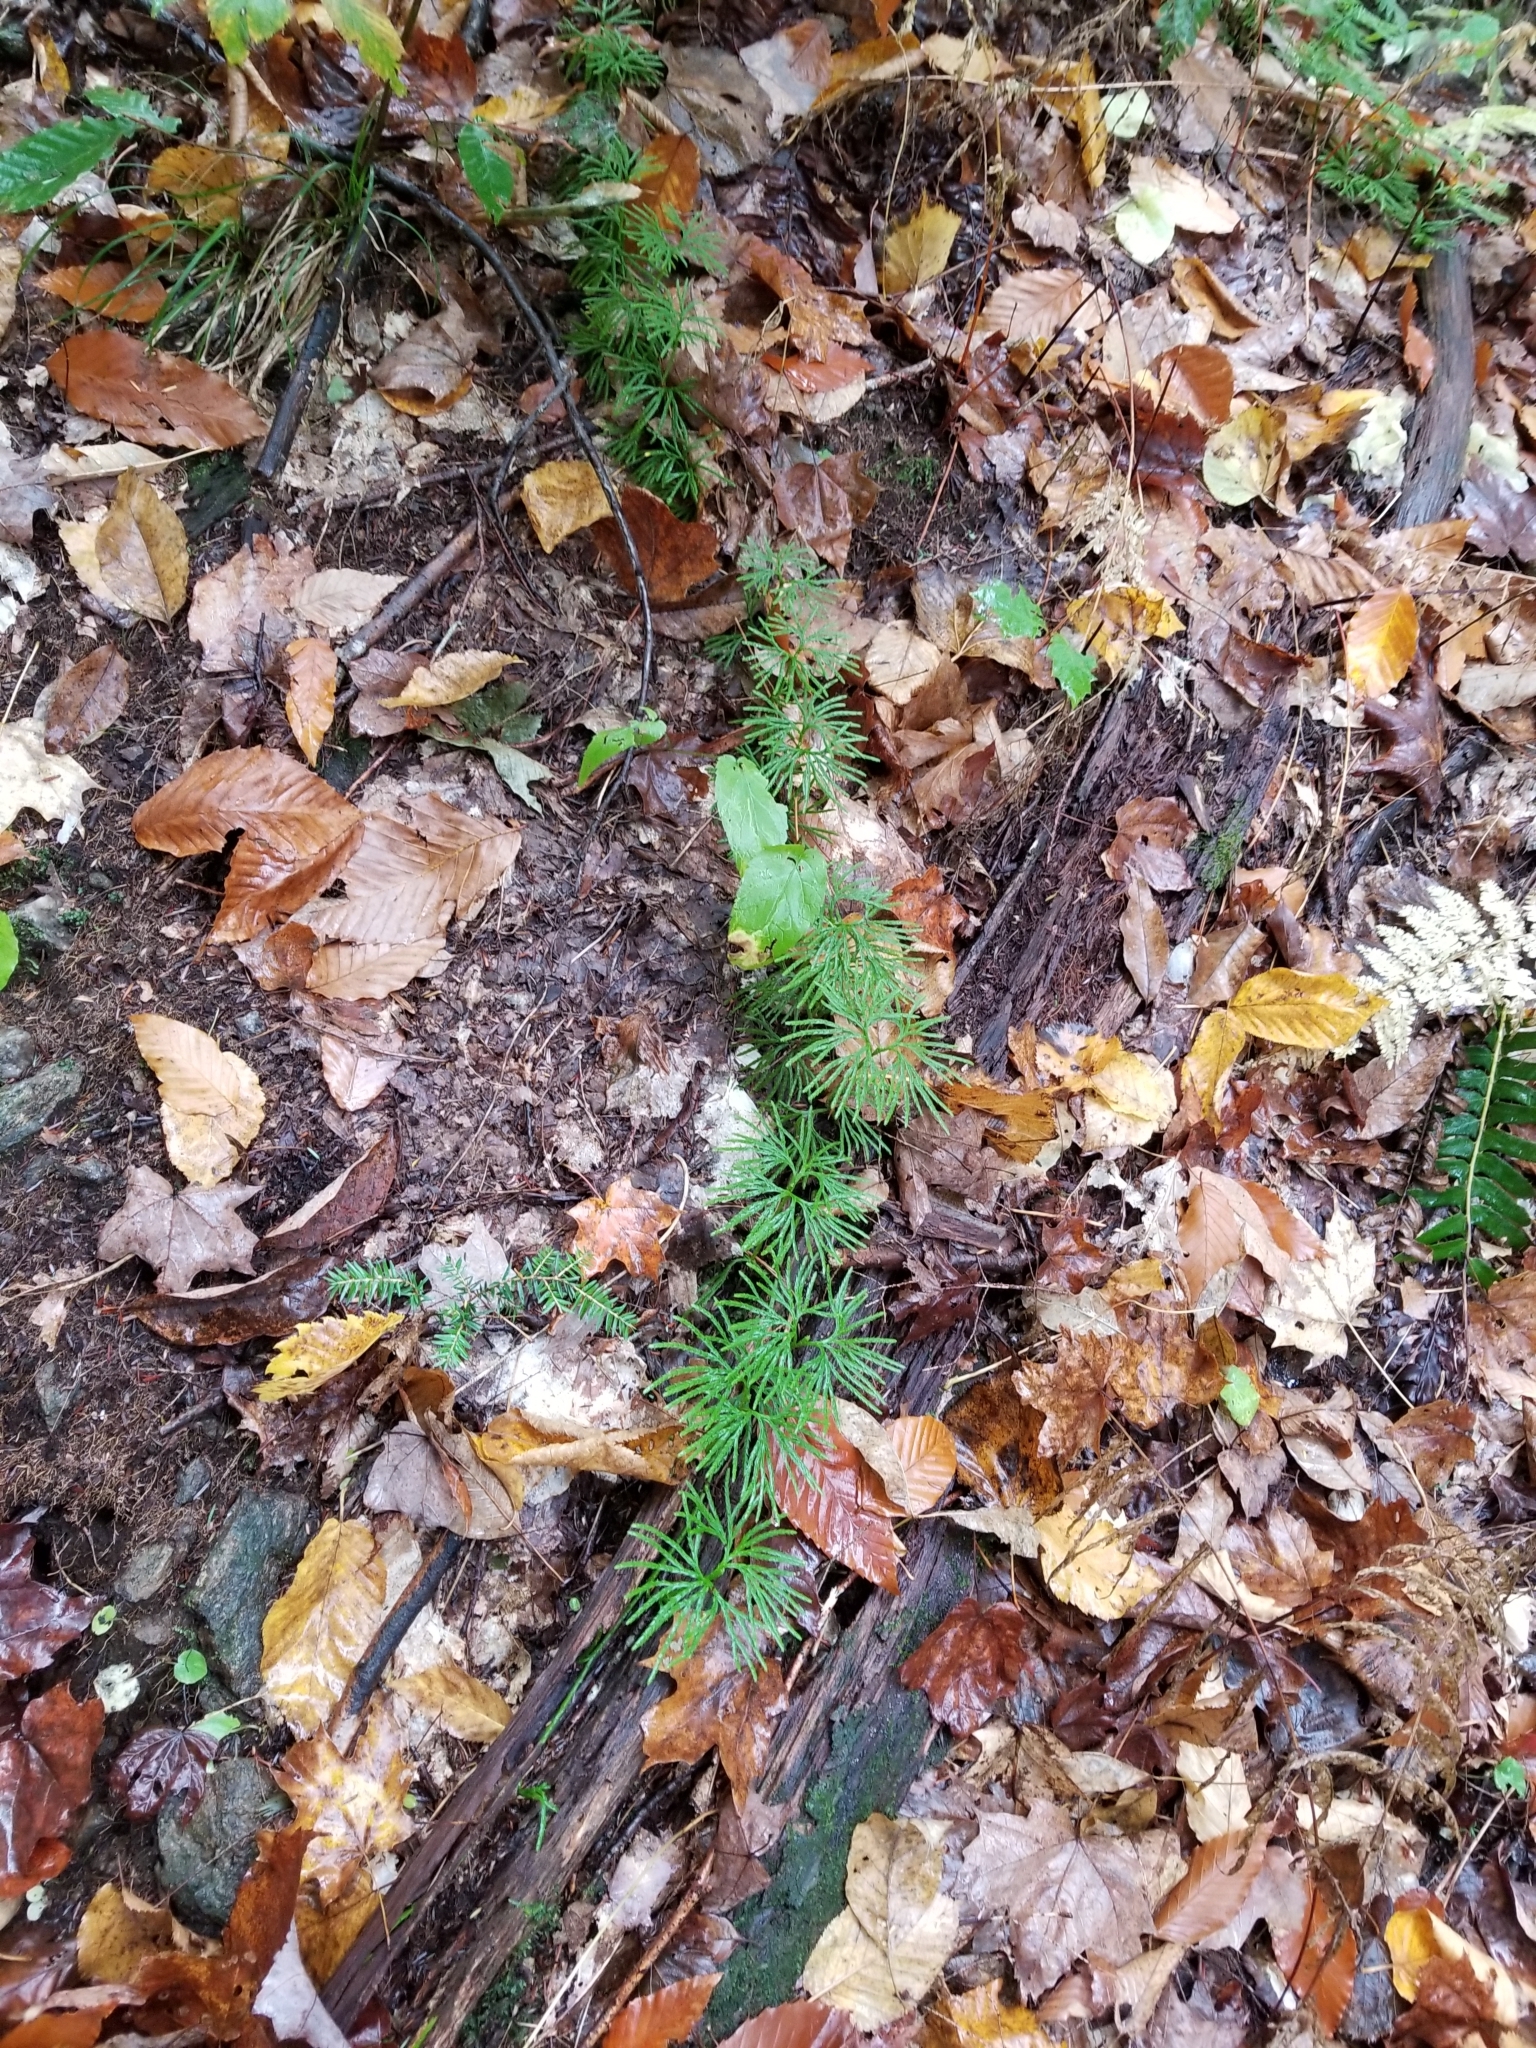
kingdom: Plantae
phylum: Tracheophyta
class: Lycopodiopsida
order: Lycopodiales
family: Lycopodiaceae
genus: Diphasiastrum
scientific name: Diphasiastrum digitatum
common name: Southern running-pine
